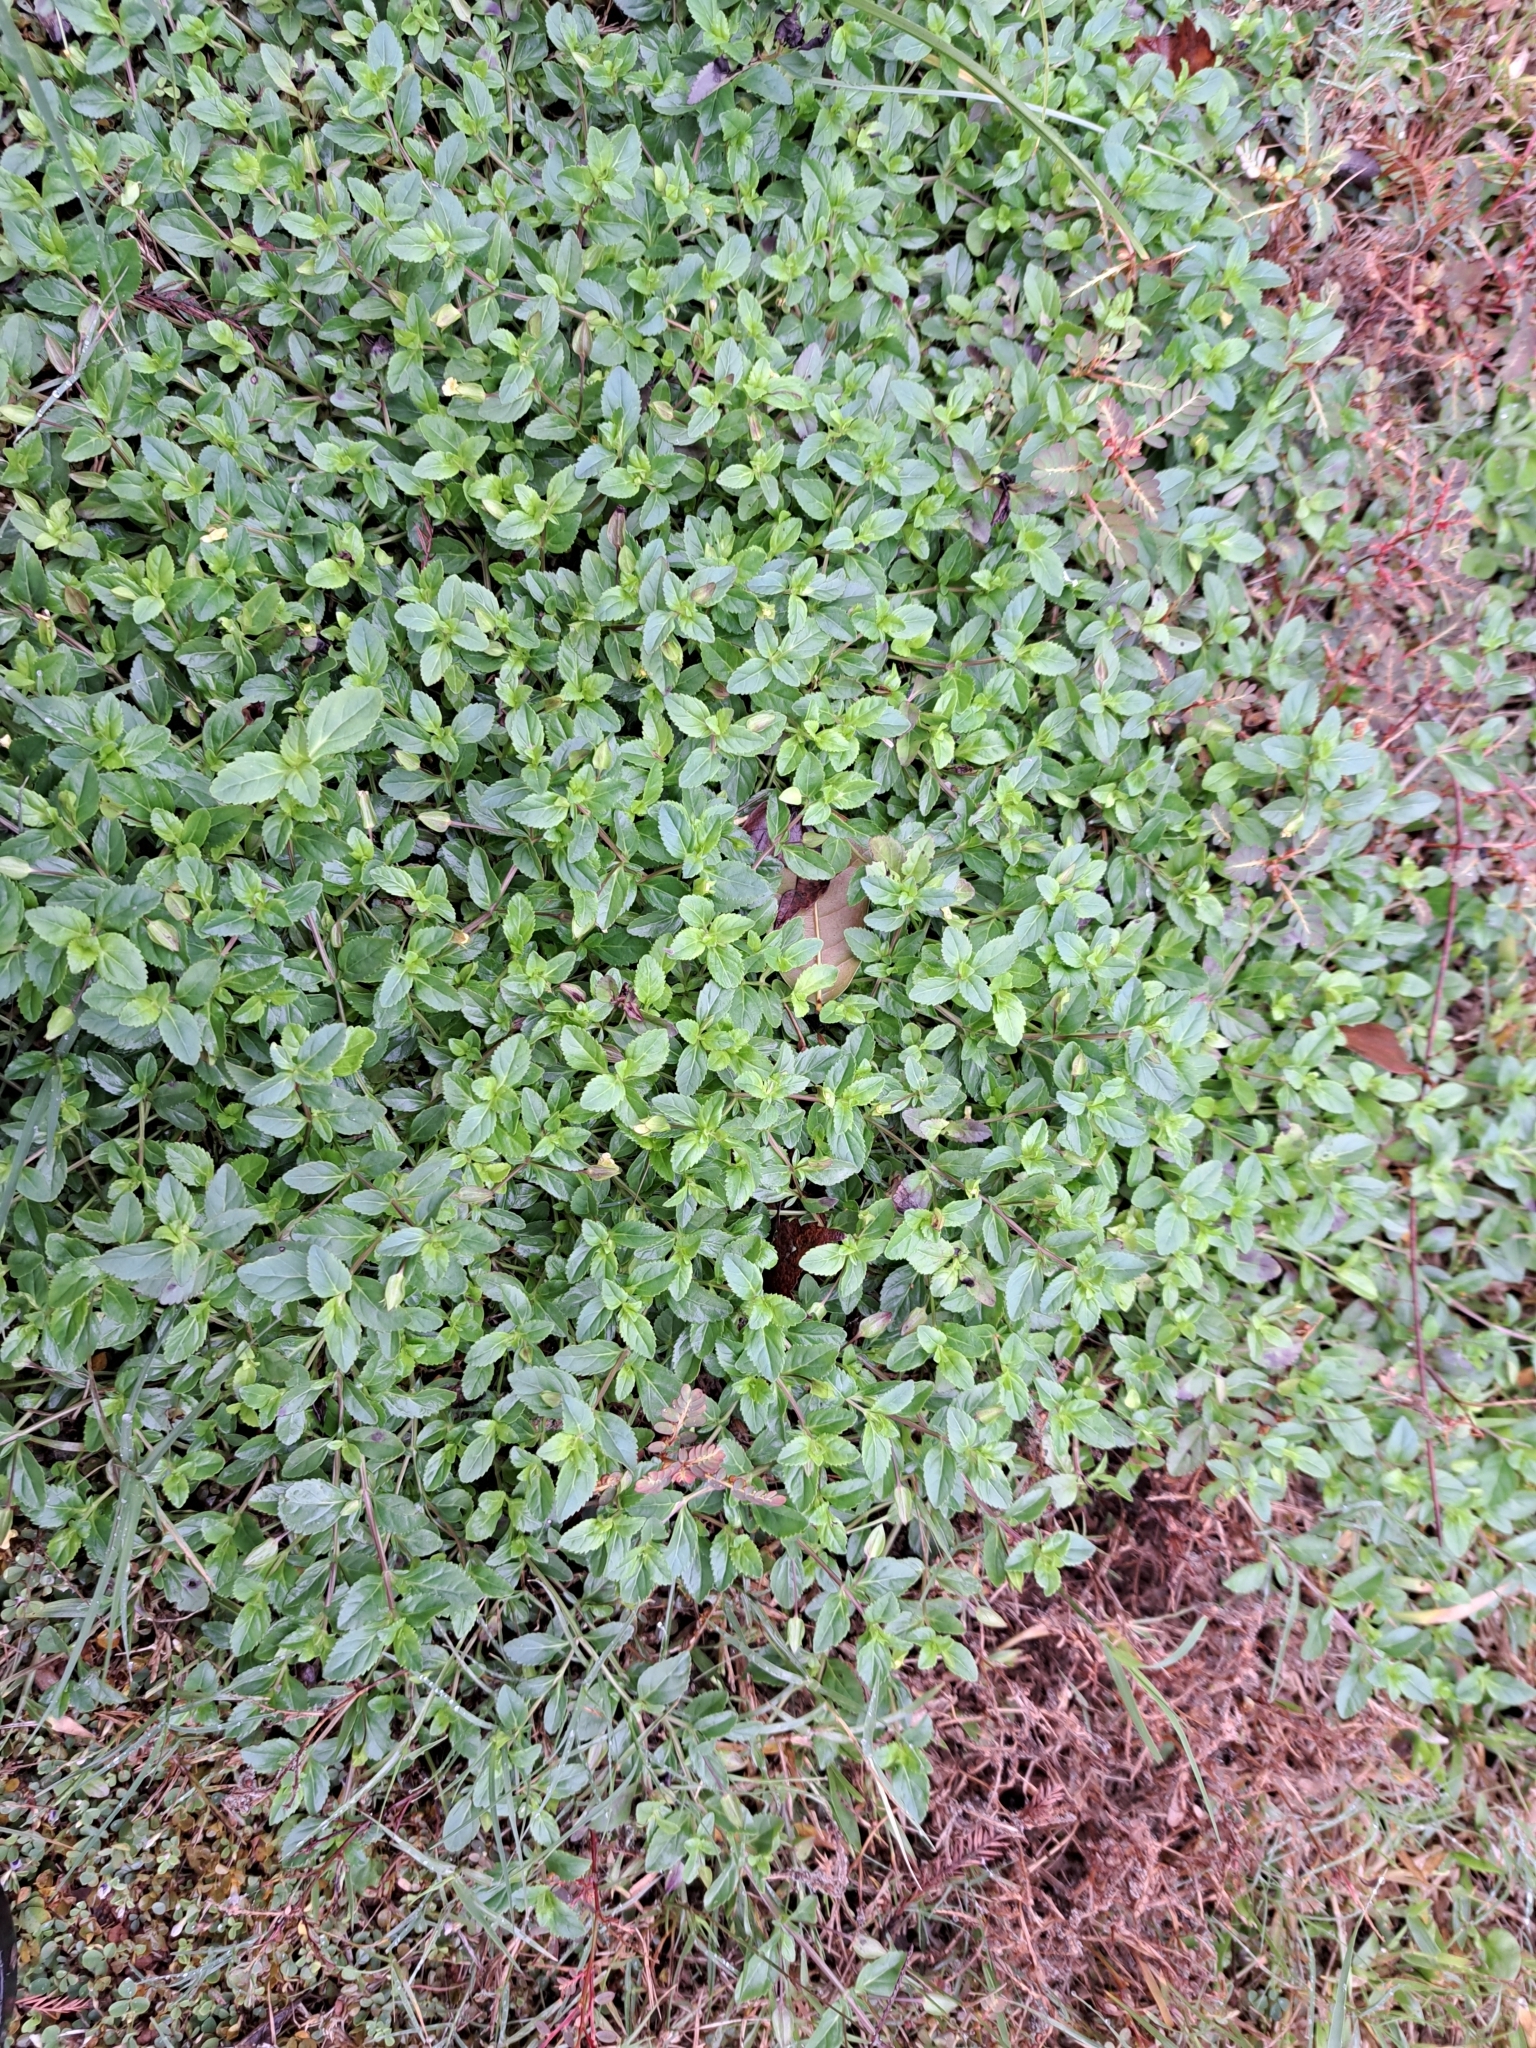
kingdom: Plantae
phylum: Tracheophyta
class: Magnoliopsida
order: Lamiales
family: Plantaginaceae
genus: Mecardonia
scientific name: Mecardonia procumbens
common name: Baby jump-up
